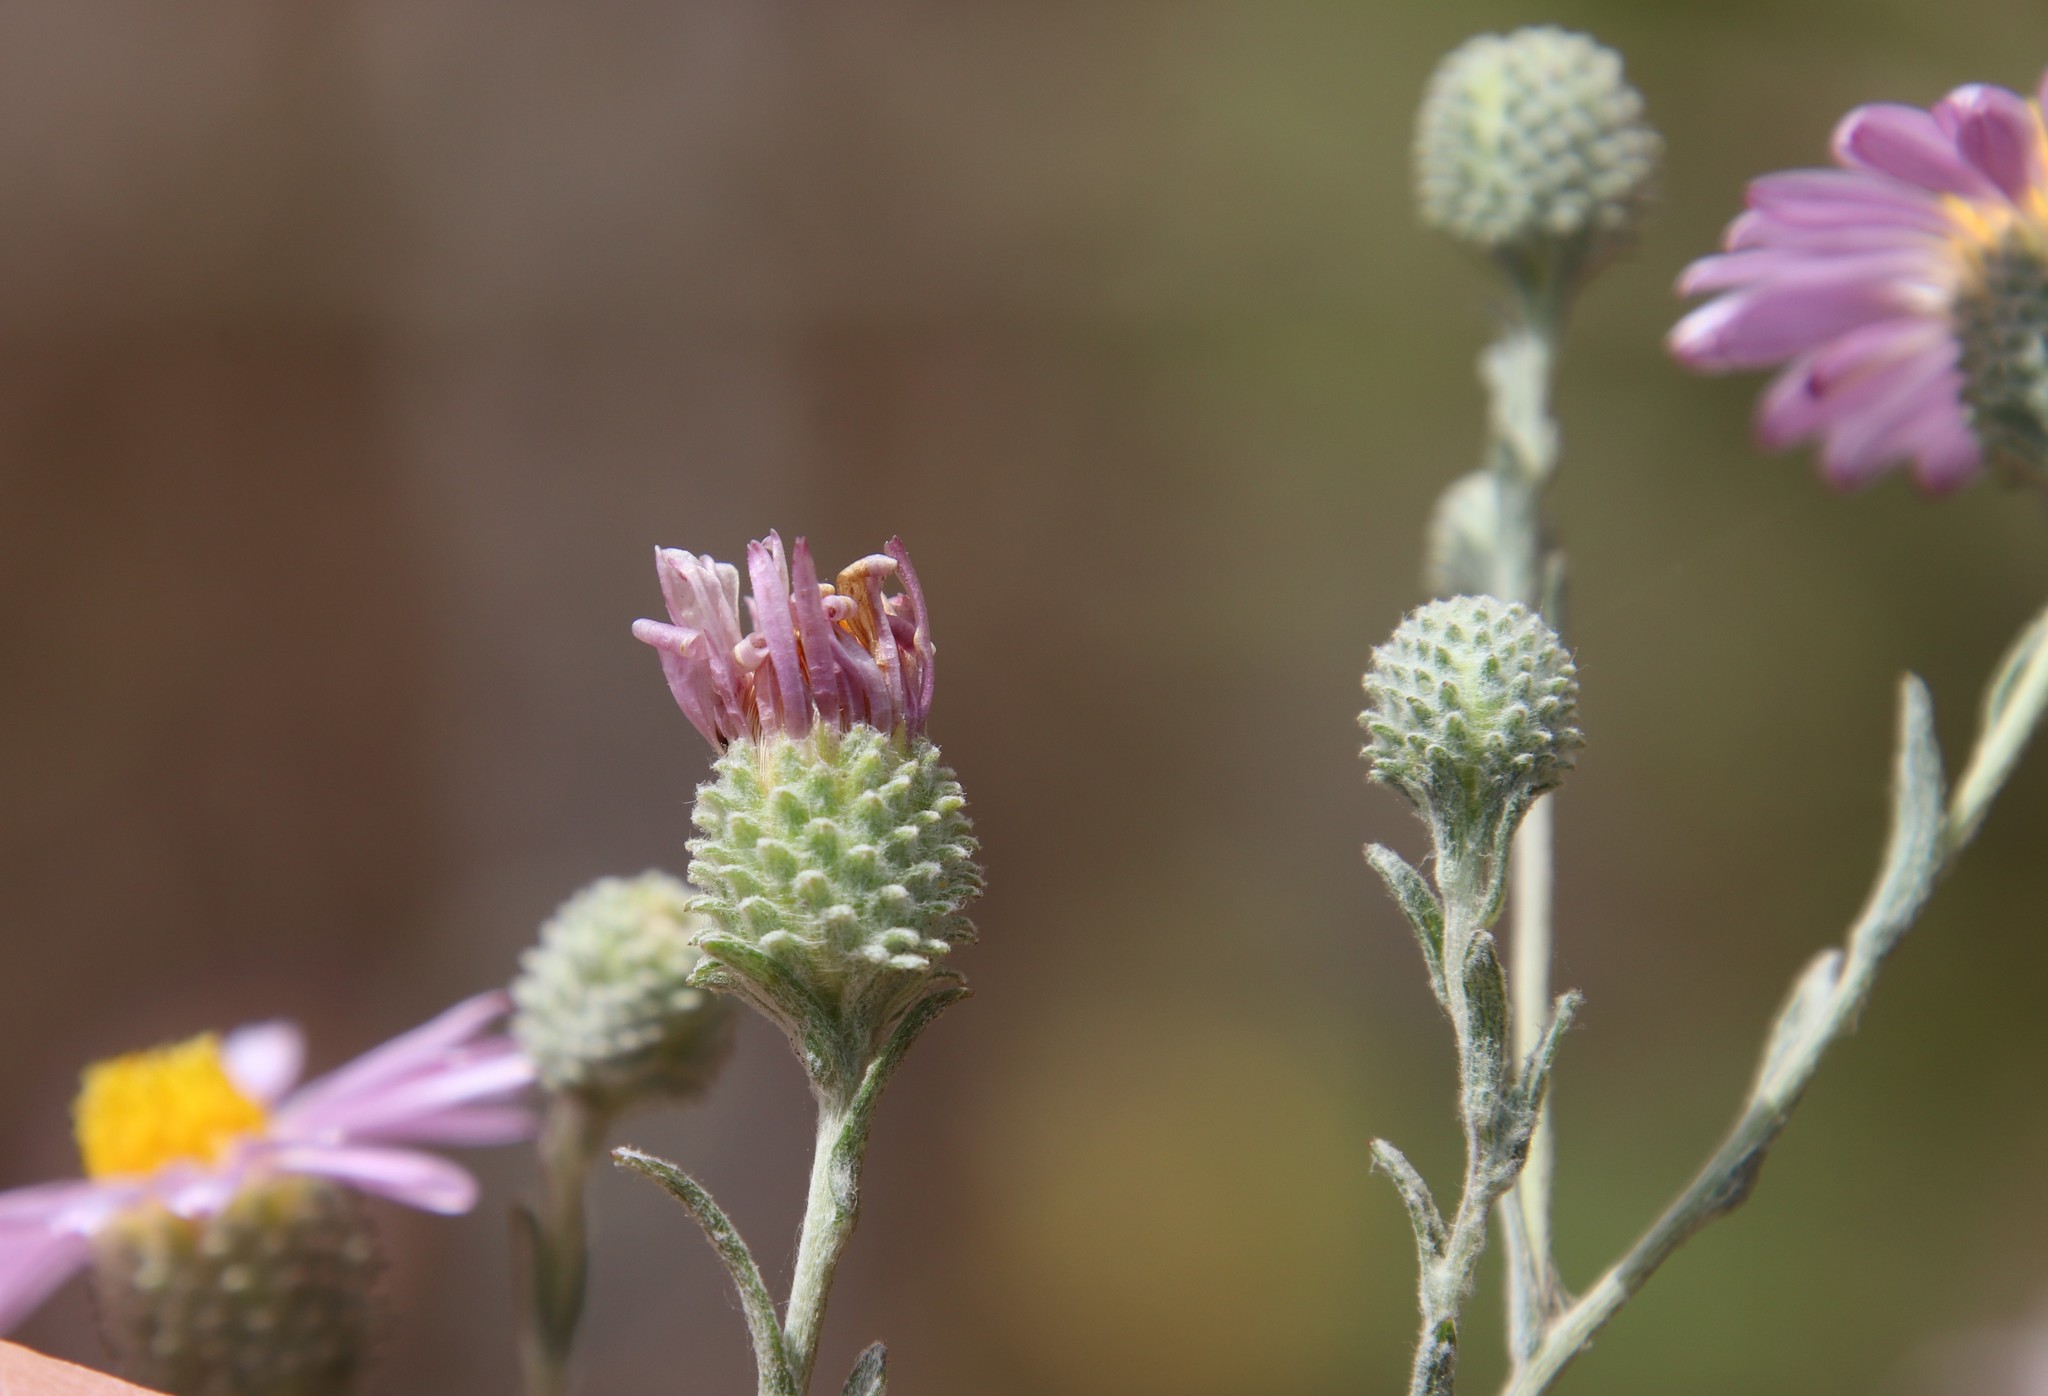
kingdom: Plantae
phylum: Tracheophyta
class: Magnoliopsida
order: Asterales
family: Asteraceae
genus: Corethrogyne
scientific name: Corethrogyne filaginifolia
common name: Sand-aster
